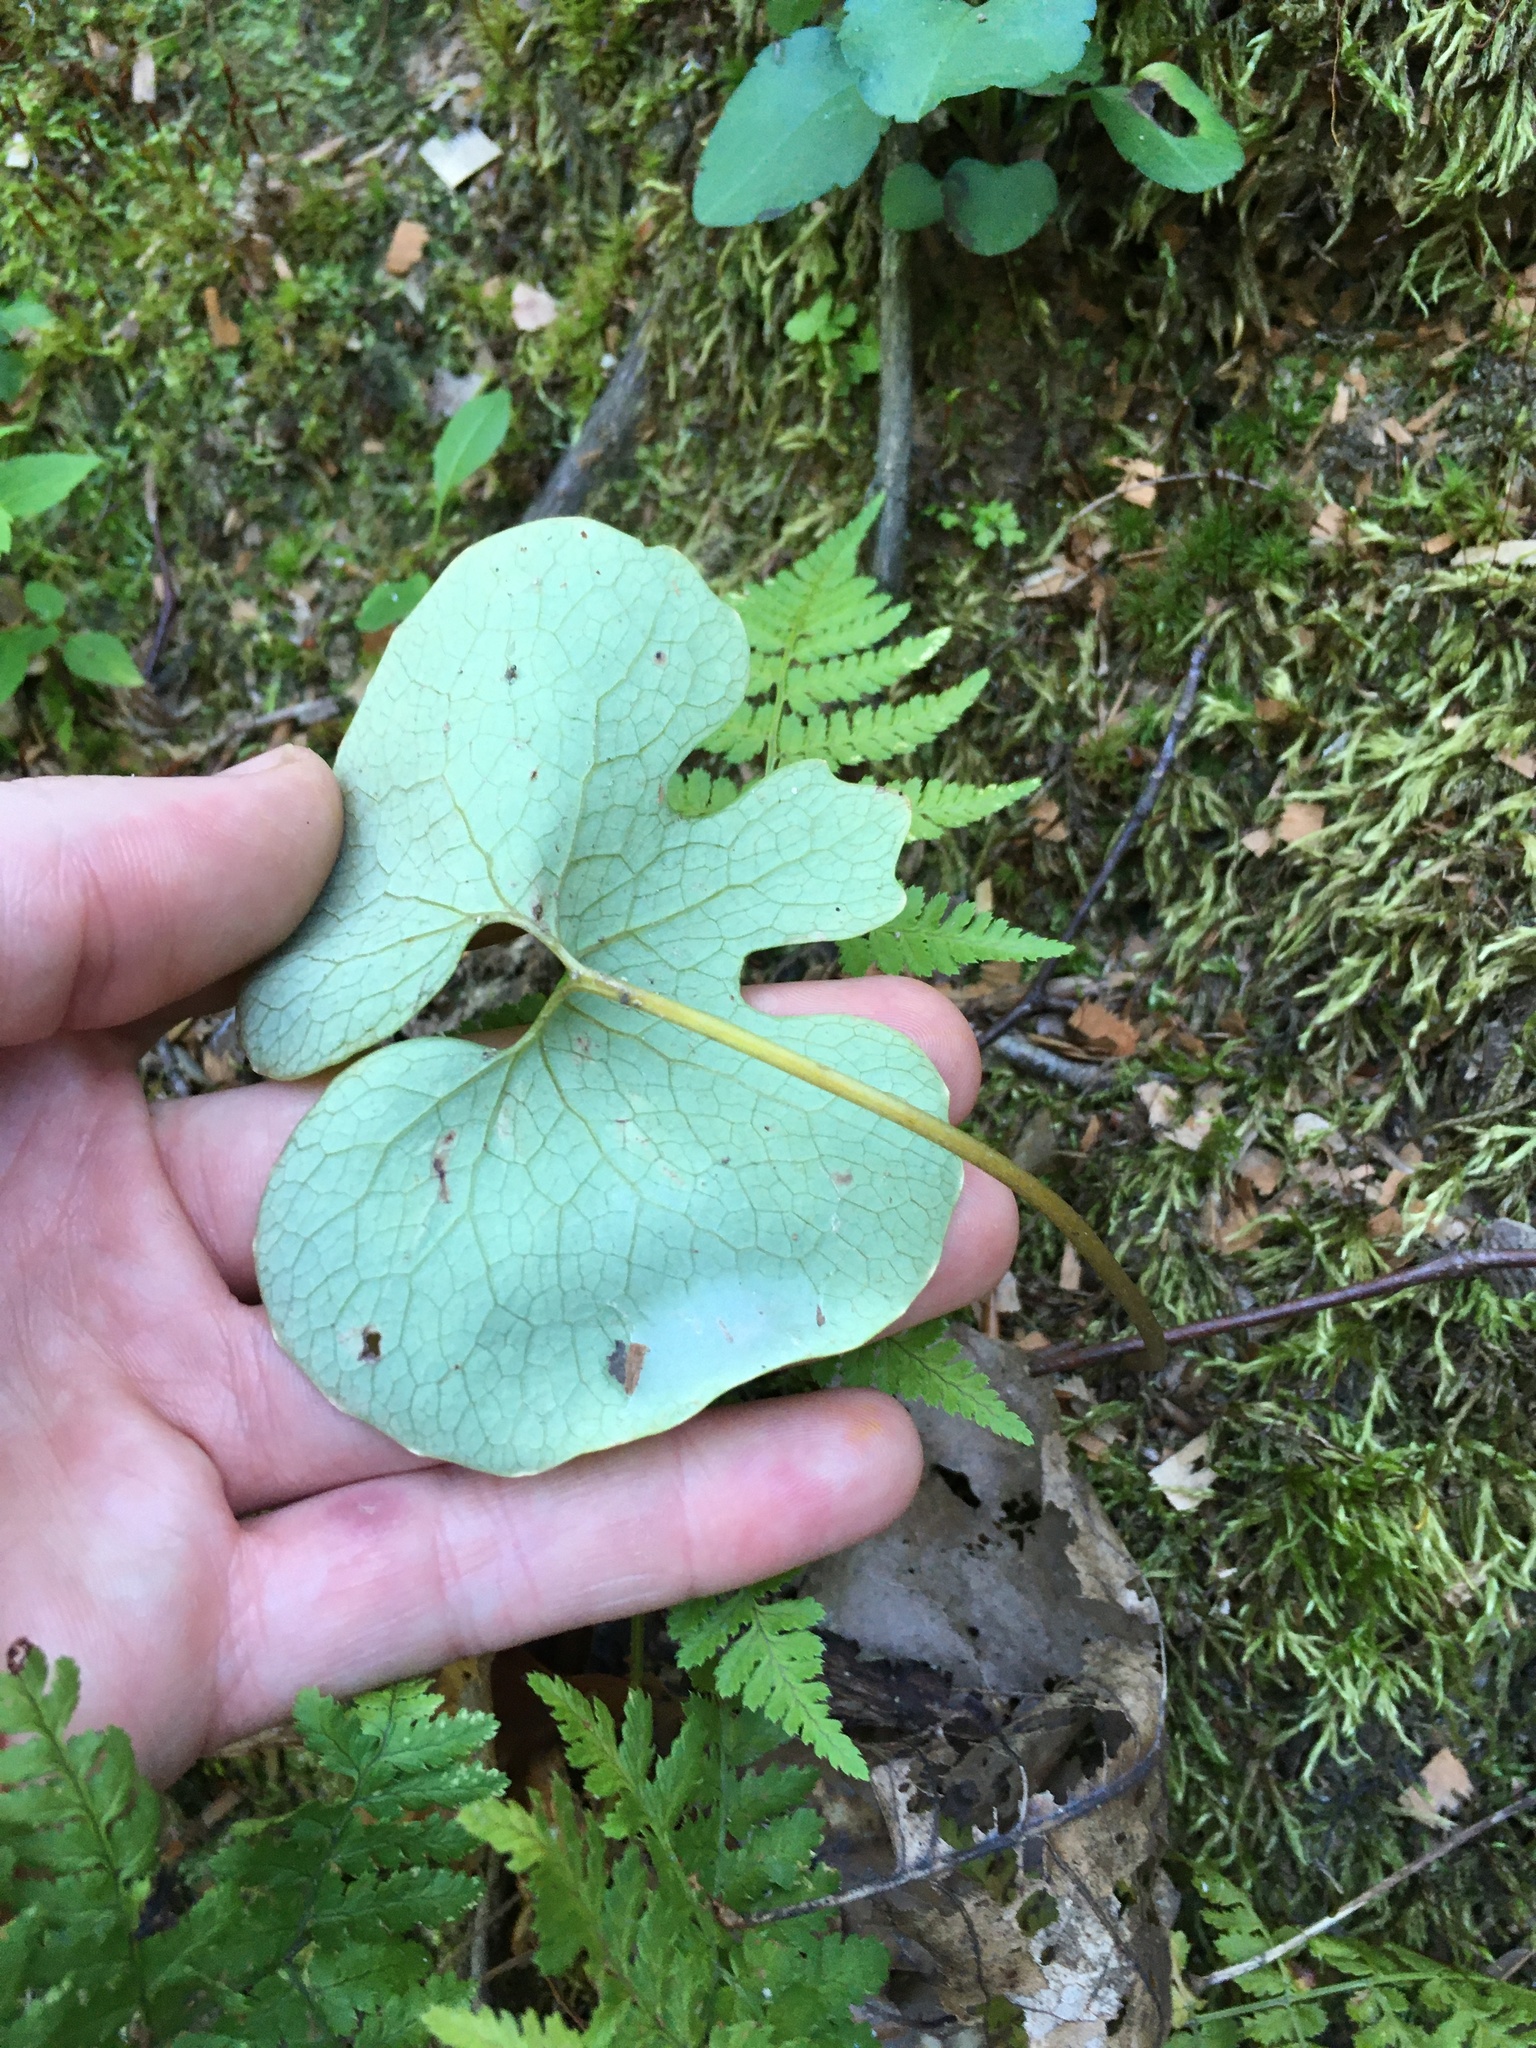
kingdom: Plantae
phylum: Tracheophyta
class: Magnoliopsida
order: Ranunculales
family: Papaveraceae
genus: Sanguinaria
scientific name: Sanguinaria canadensis
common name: Bloodroot
